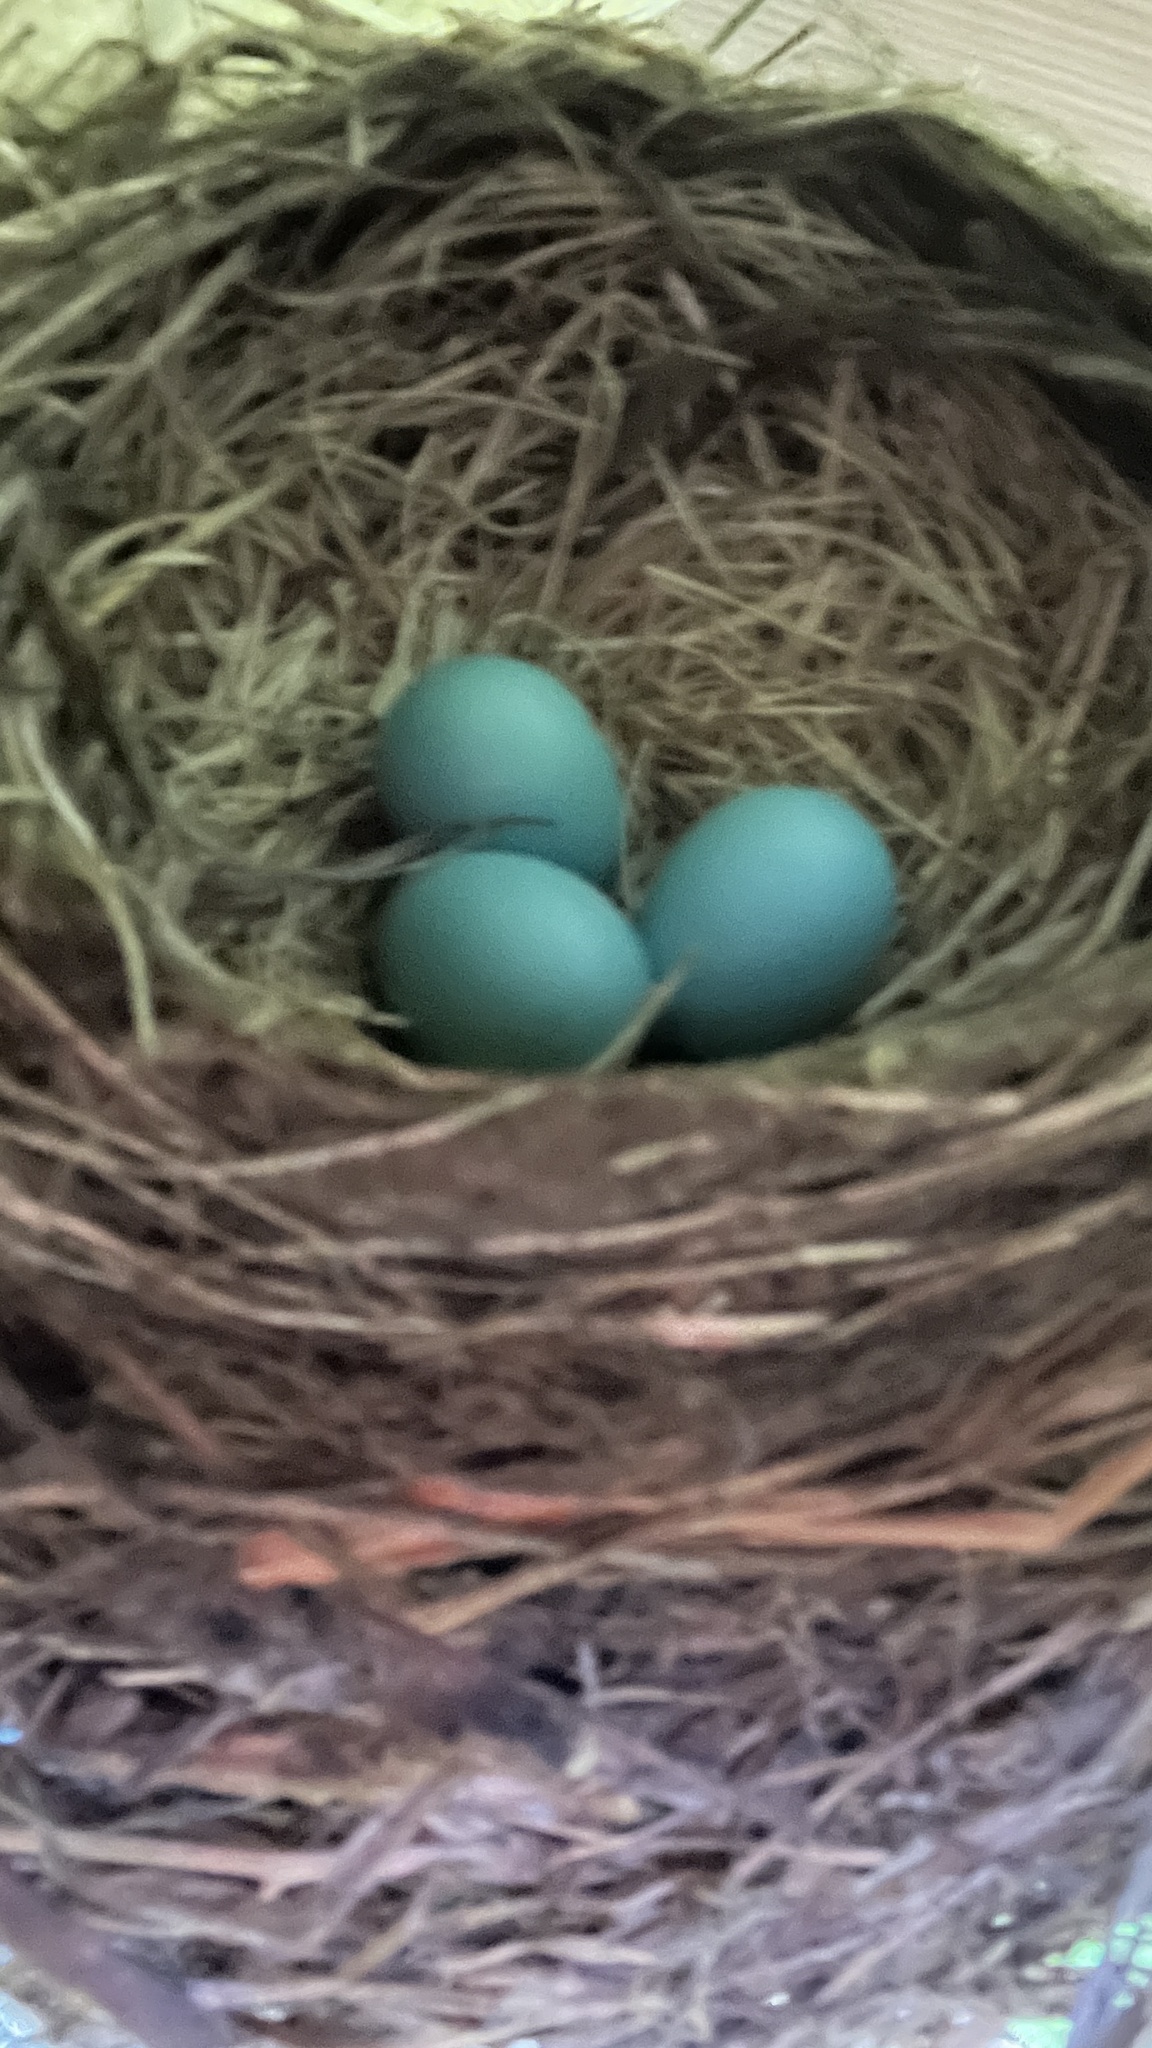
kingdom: Animalia
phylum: Chordata
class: Aves
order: Passeriformes
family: Turdidae
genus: Turdus
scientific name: Turdus migratorius
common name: American robin
